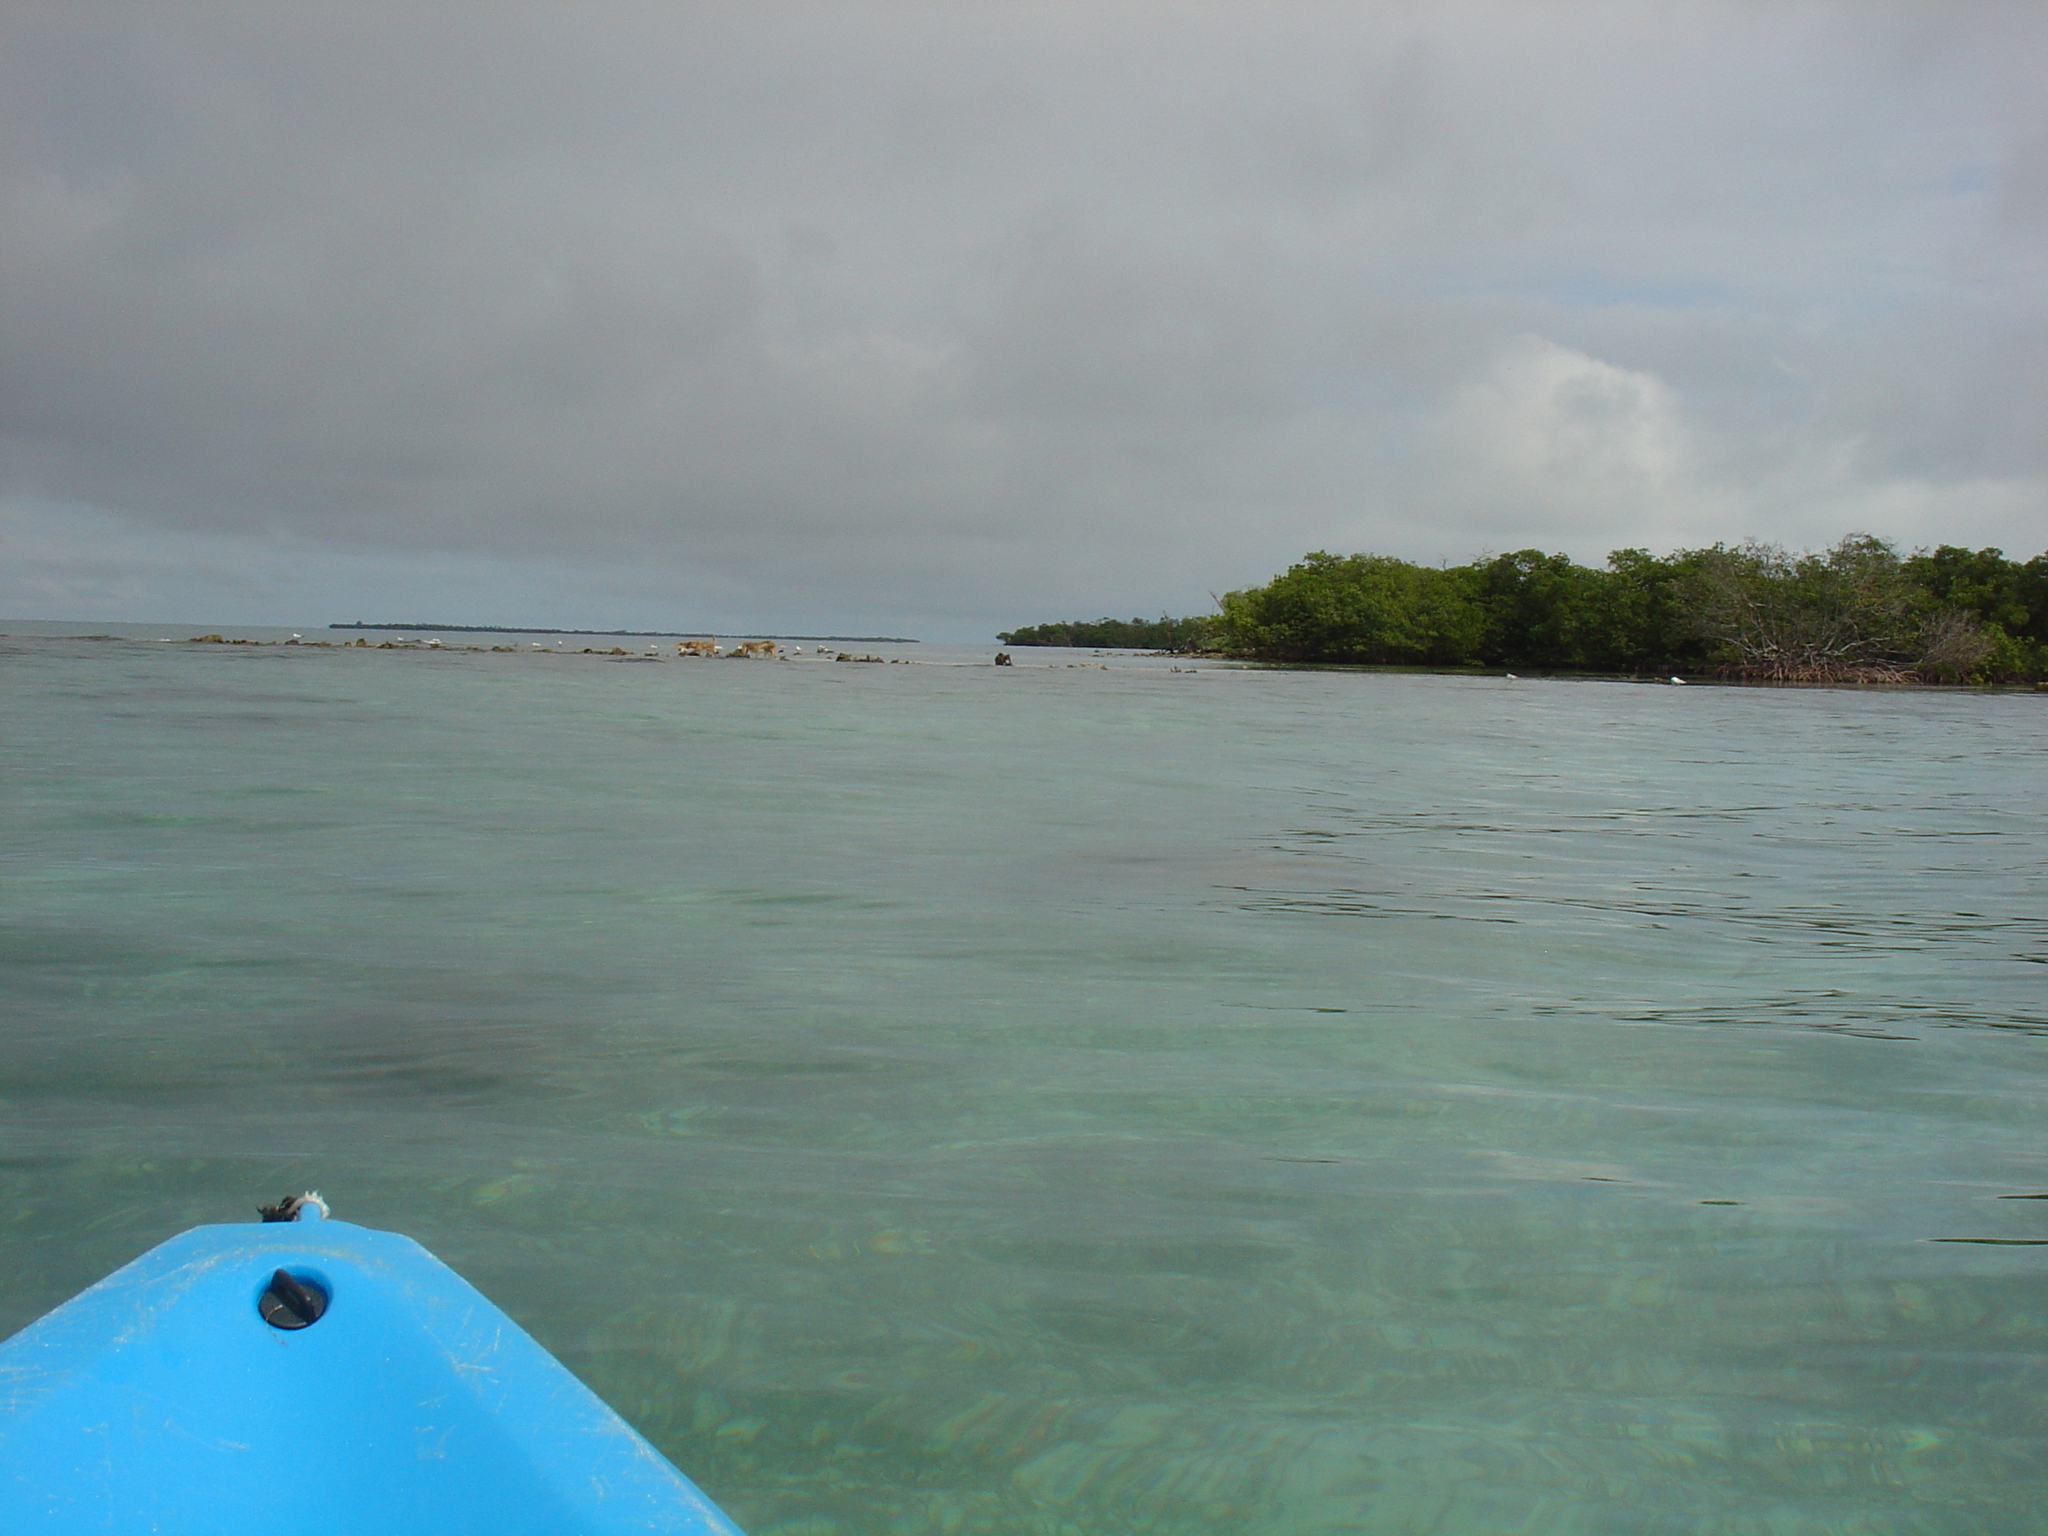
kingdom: Animalia
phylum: Chordata
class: Mammalia
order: Carnivora
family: Canidae
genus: Canis
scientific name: Canis lupus
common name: Gray wolf
